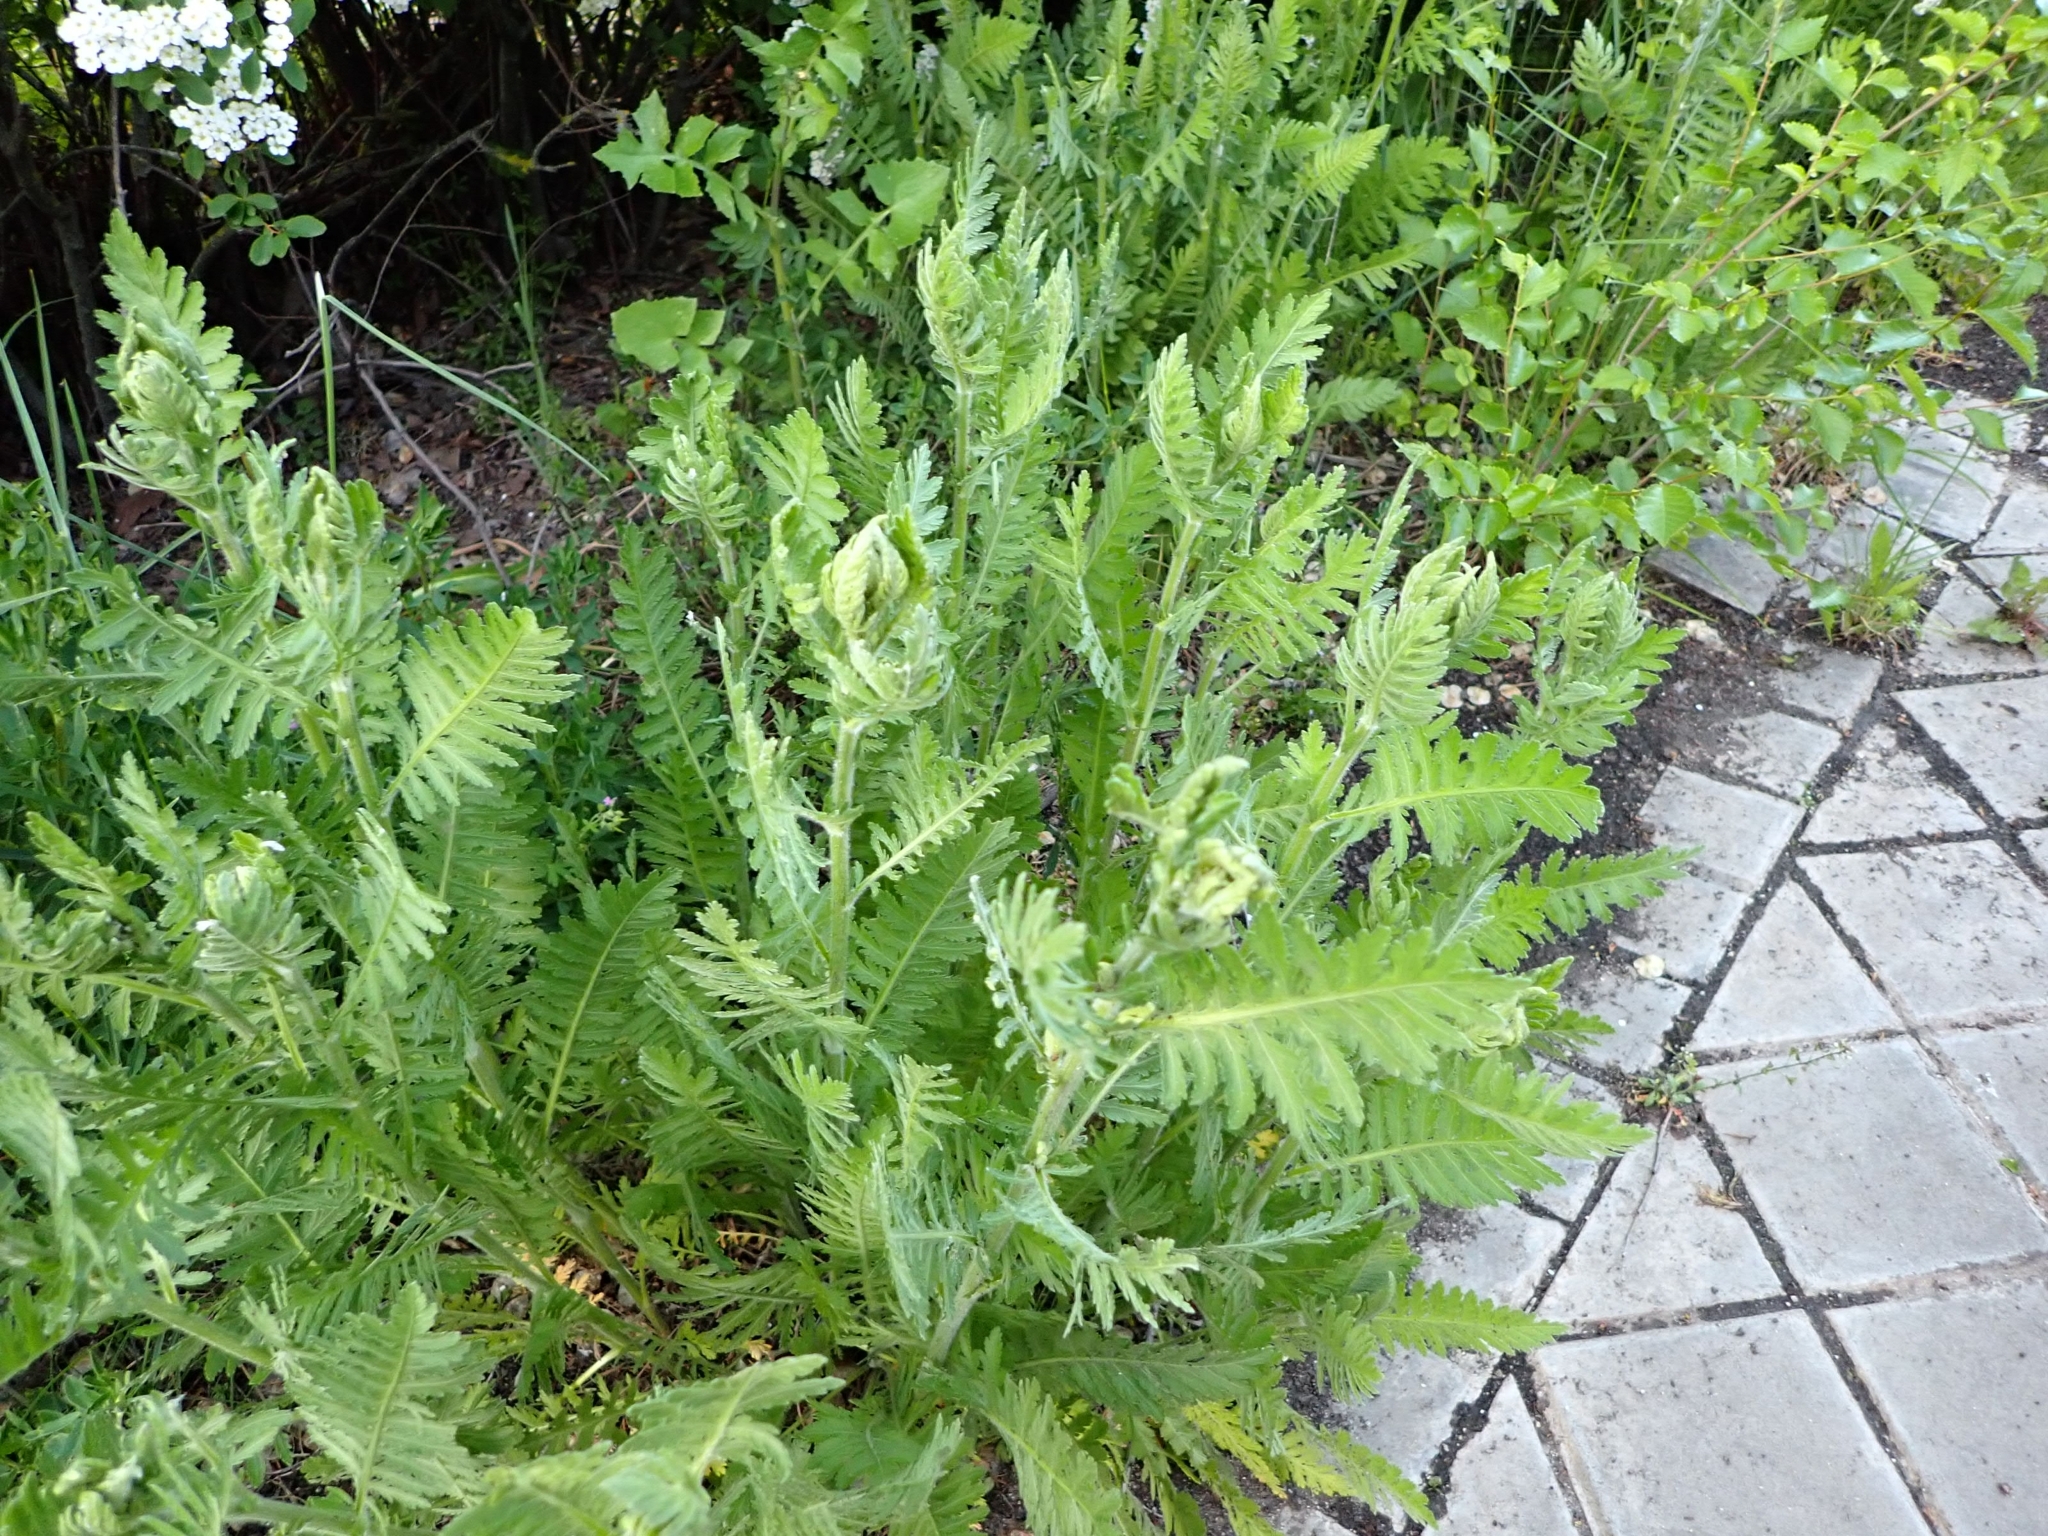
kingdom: Plantae
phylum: Tracheophyta
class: Magnoliopsida
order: Asterales
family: Asteraceae
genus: Achillea
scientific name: Achillea filipendulina
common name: Fernleaf yarrow
